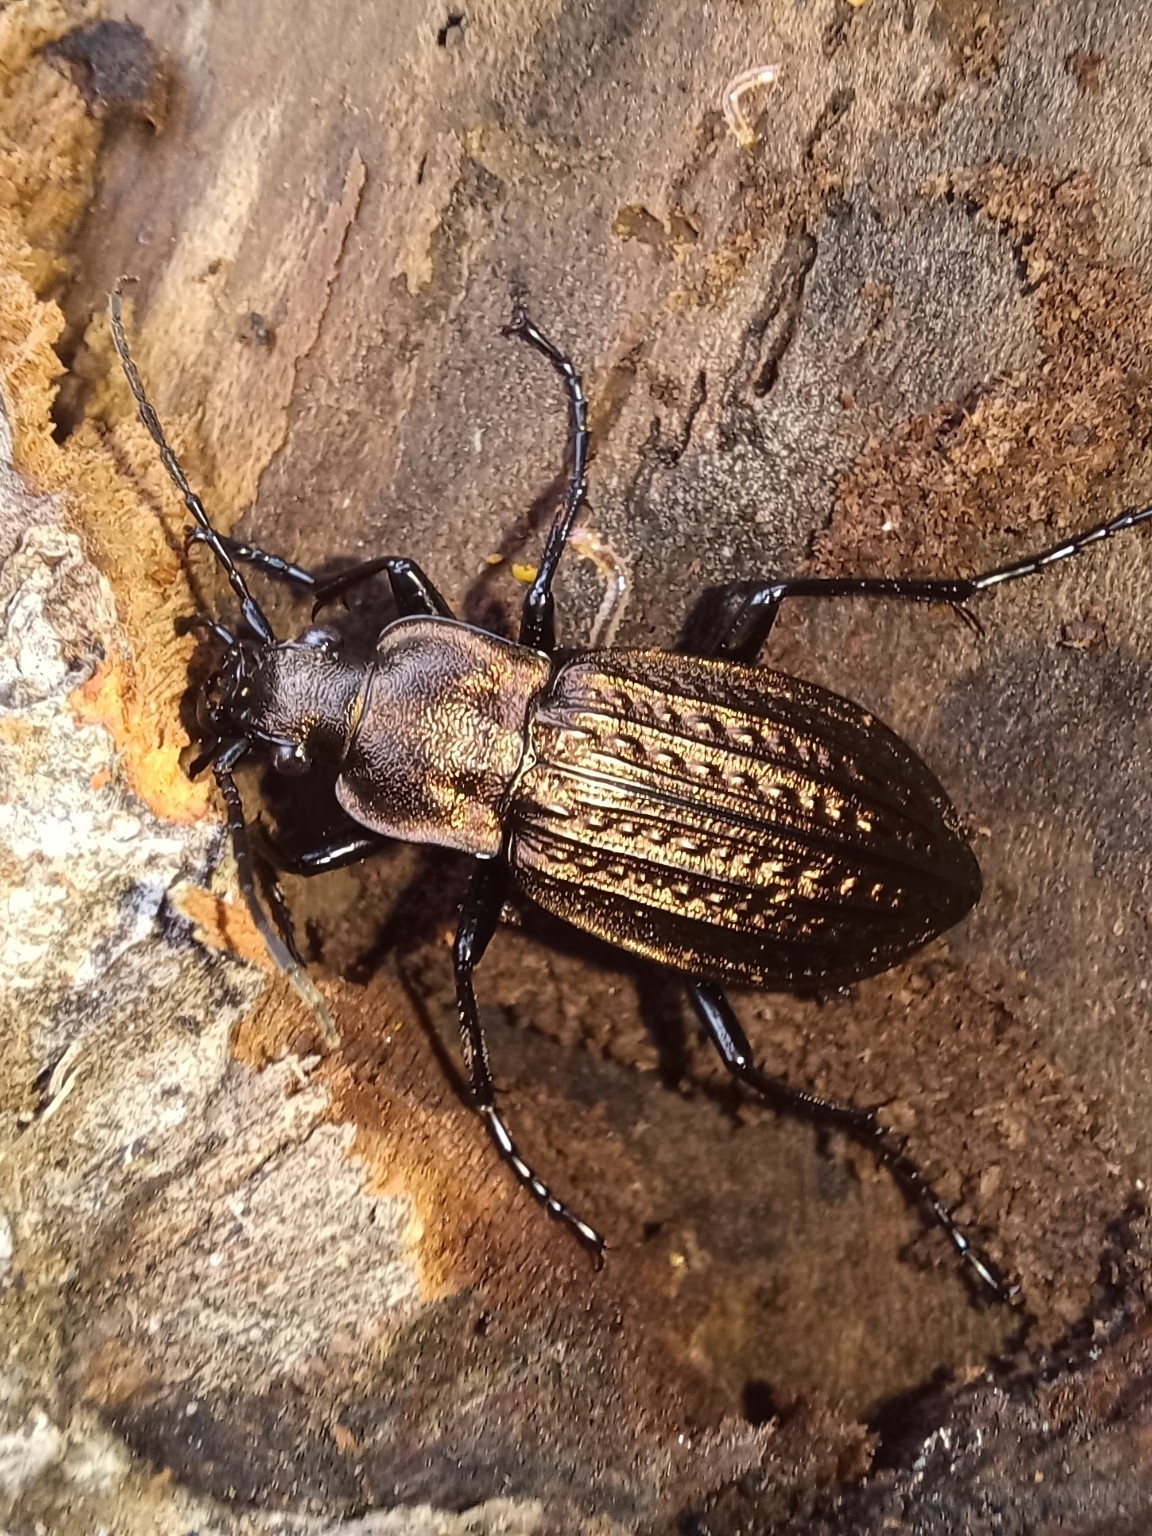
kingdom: Animalia
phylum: Arthropoda
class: Insecta
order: Coleoptera
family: Carabidae
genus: Carabus
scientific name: Carabus granulatus
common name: Granulate ground beetle
